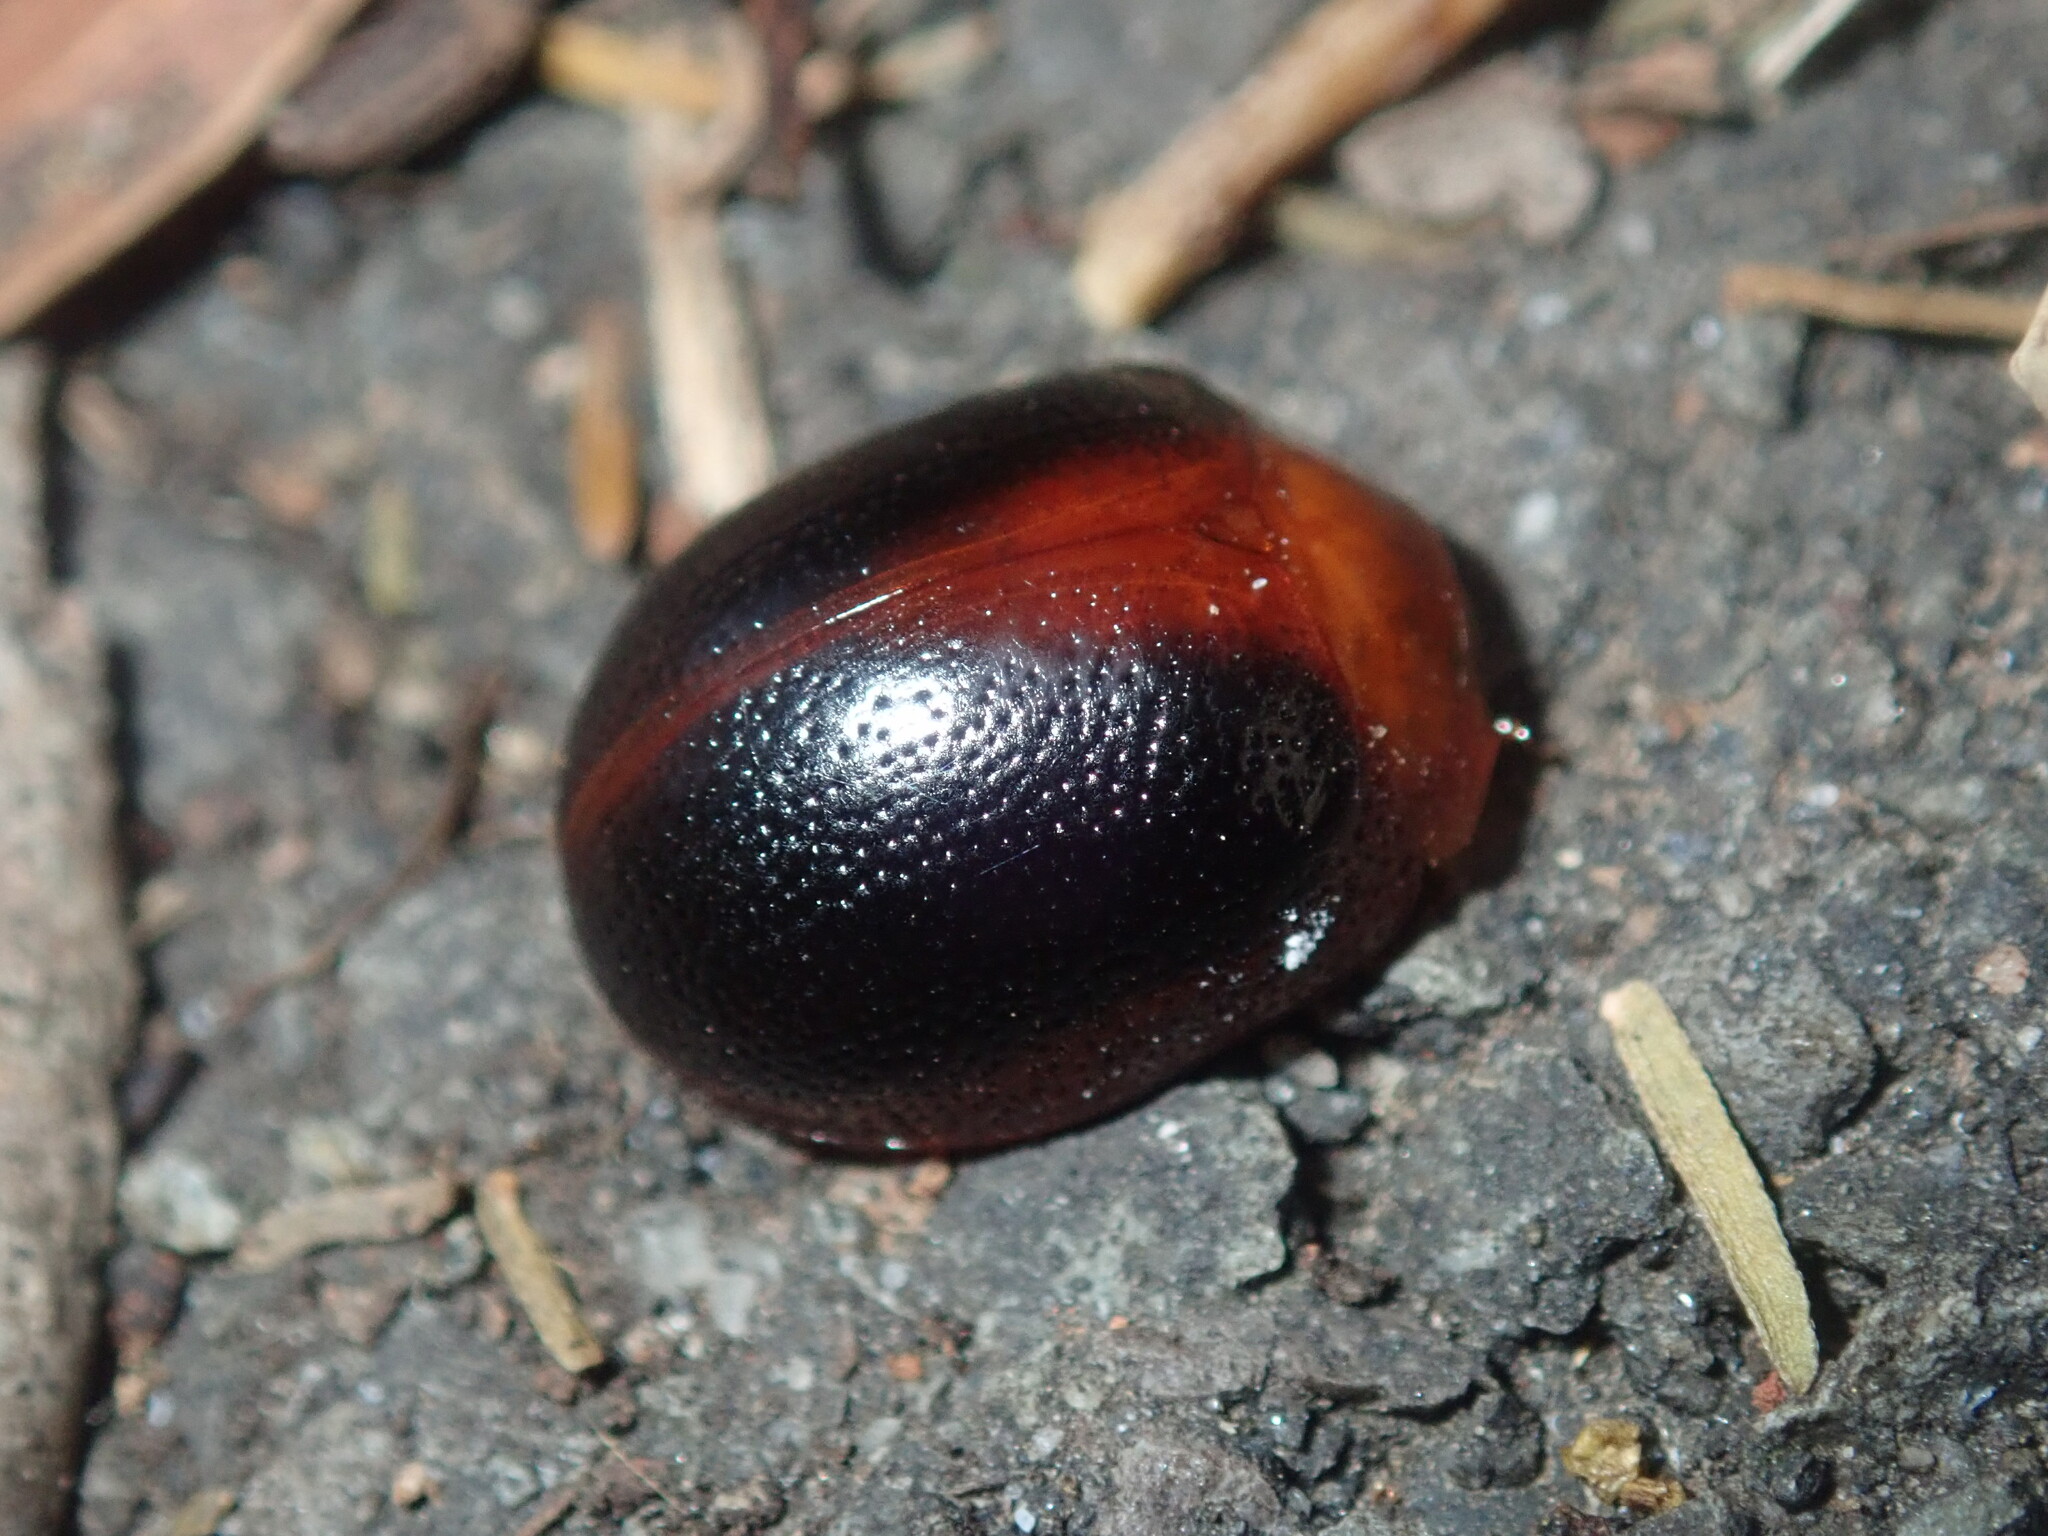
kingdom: Animalia
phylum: Arthropoda
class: Insecta
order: Coleoptera
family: Chrysomelidae
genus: Dicranosterna
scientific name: Dicranosterna
